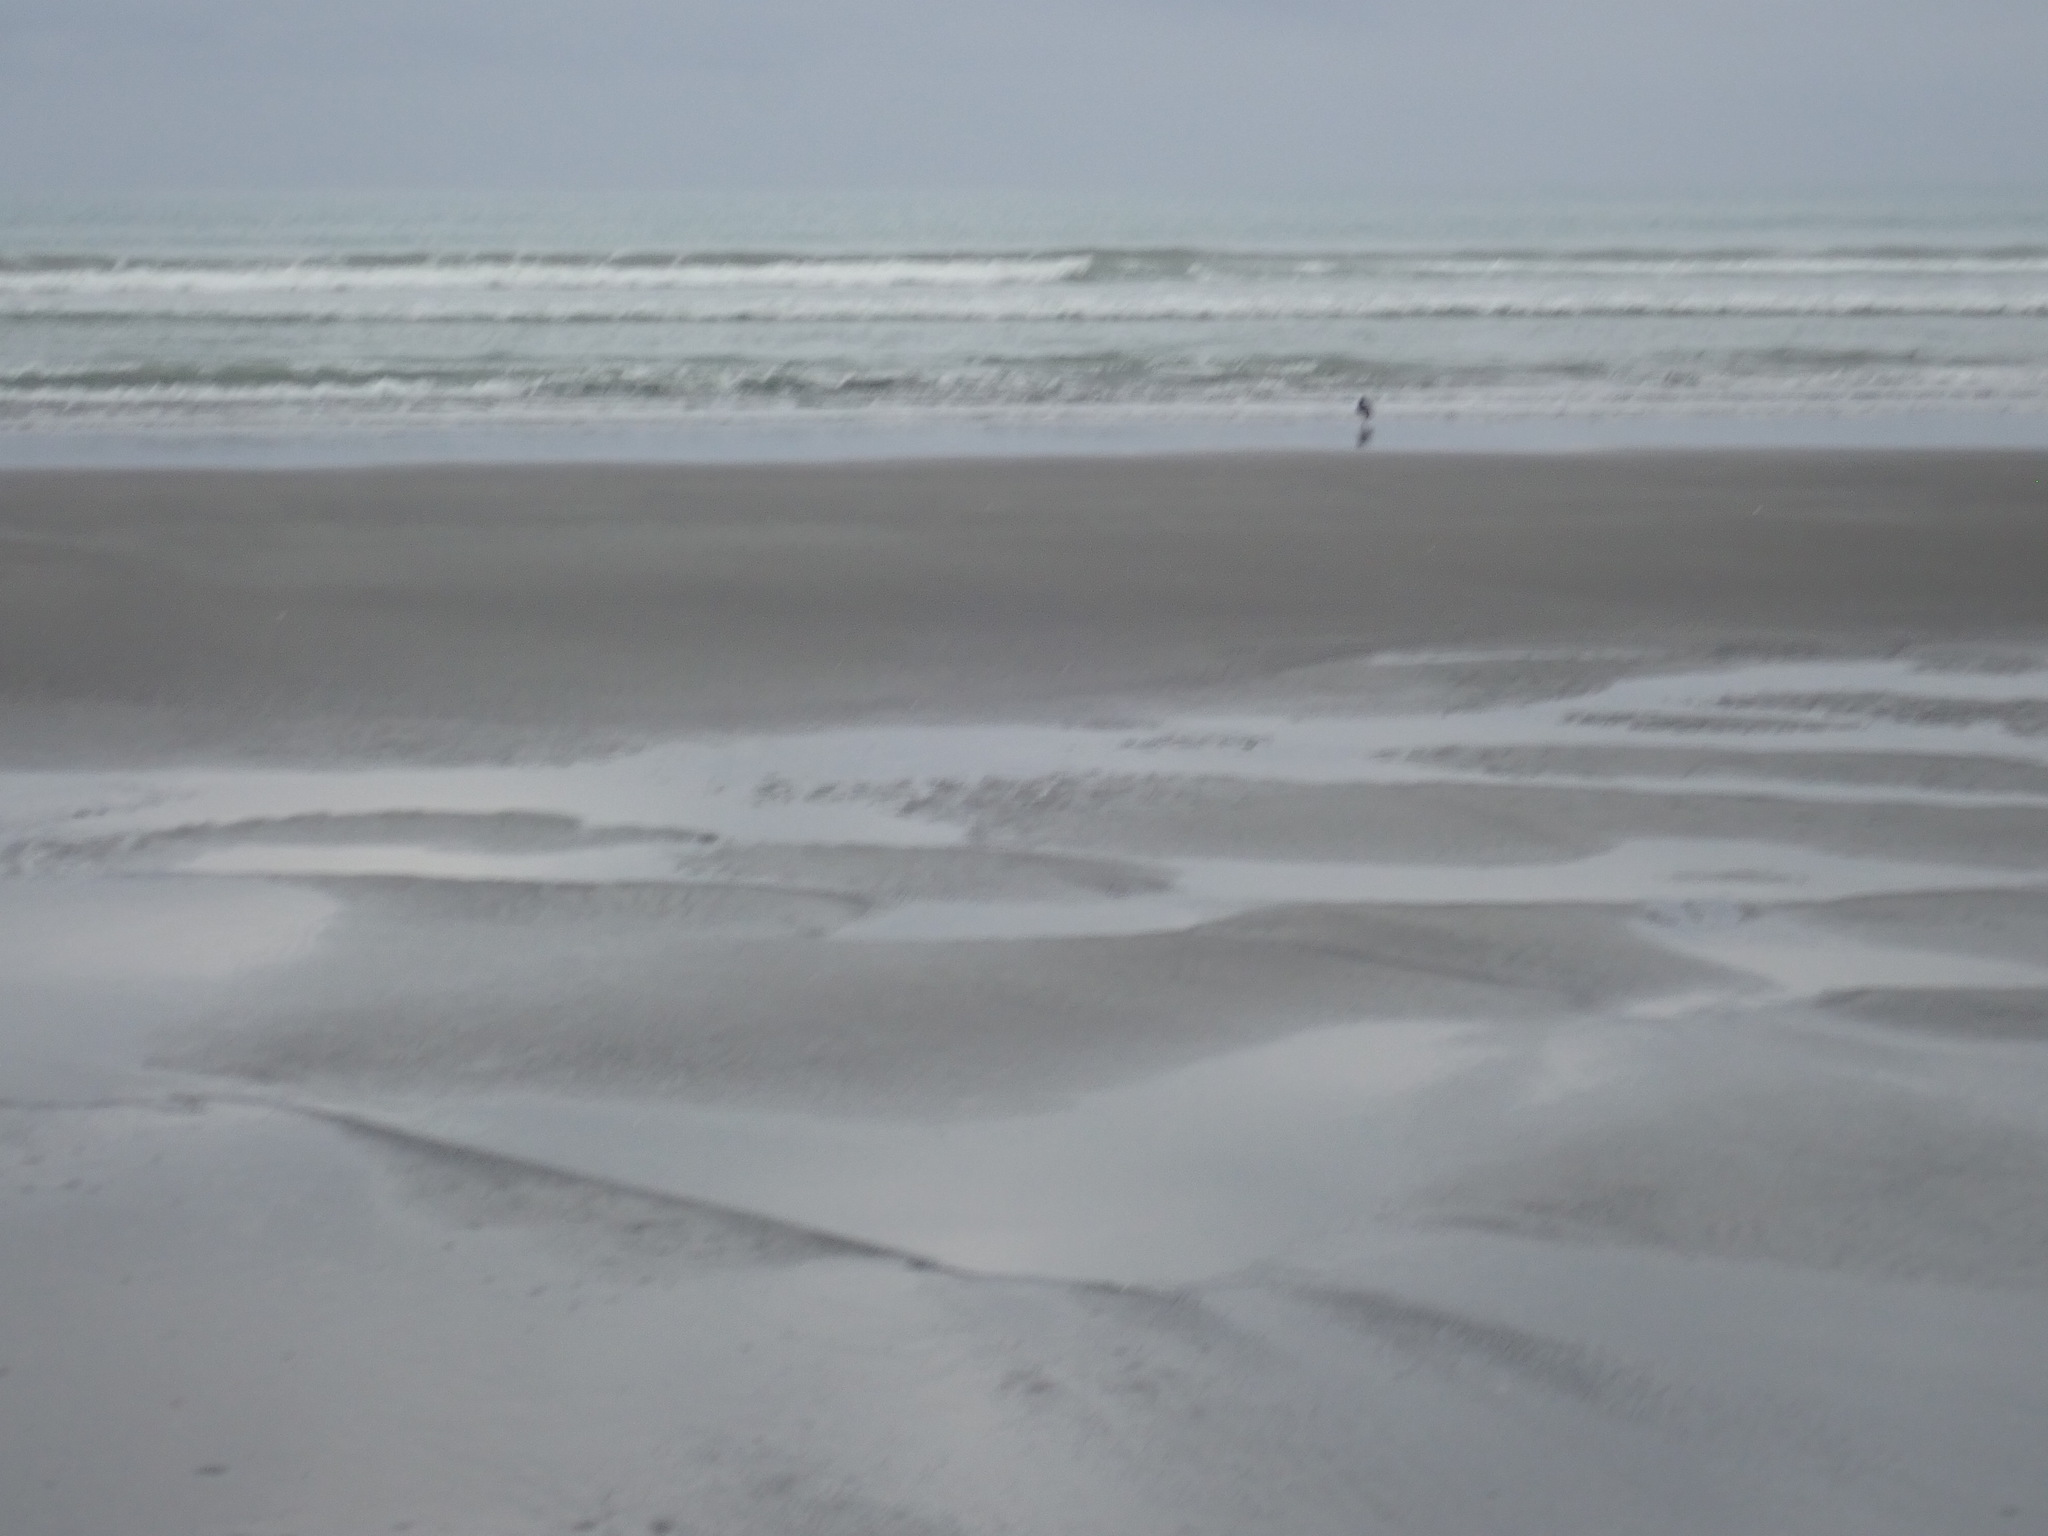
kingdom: Animalia
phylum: Chordata
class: Aves
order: Charadriiformes
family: Haematopodidae
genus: Haematopus
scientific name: Haematopus finschi
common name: South island oystercatcher
